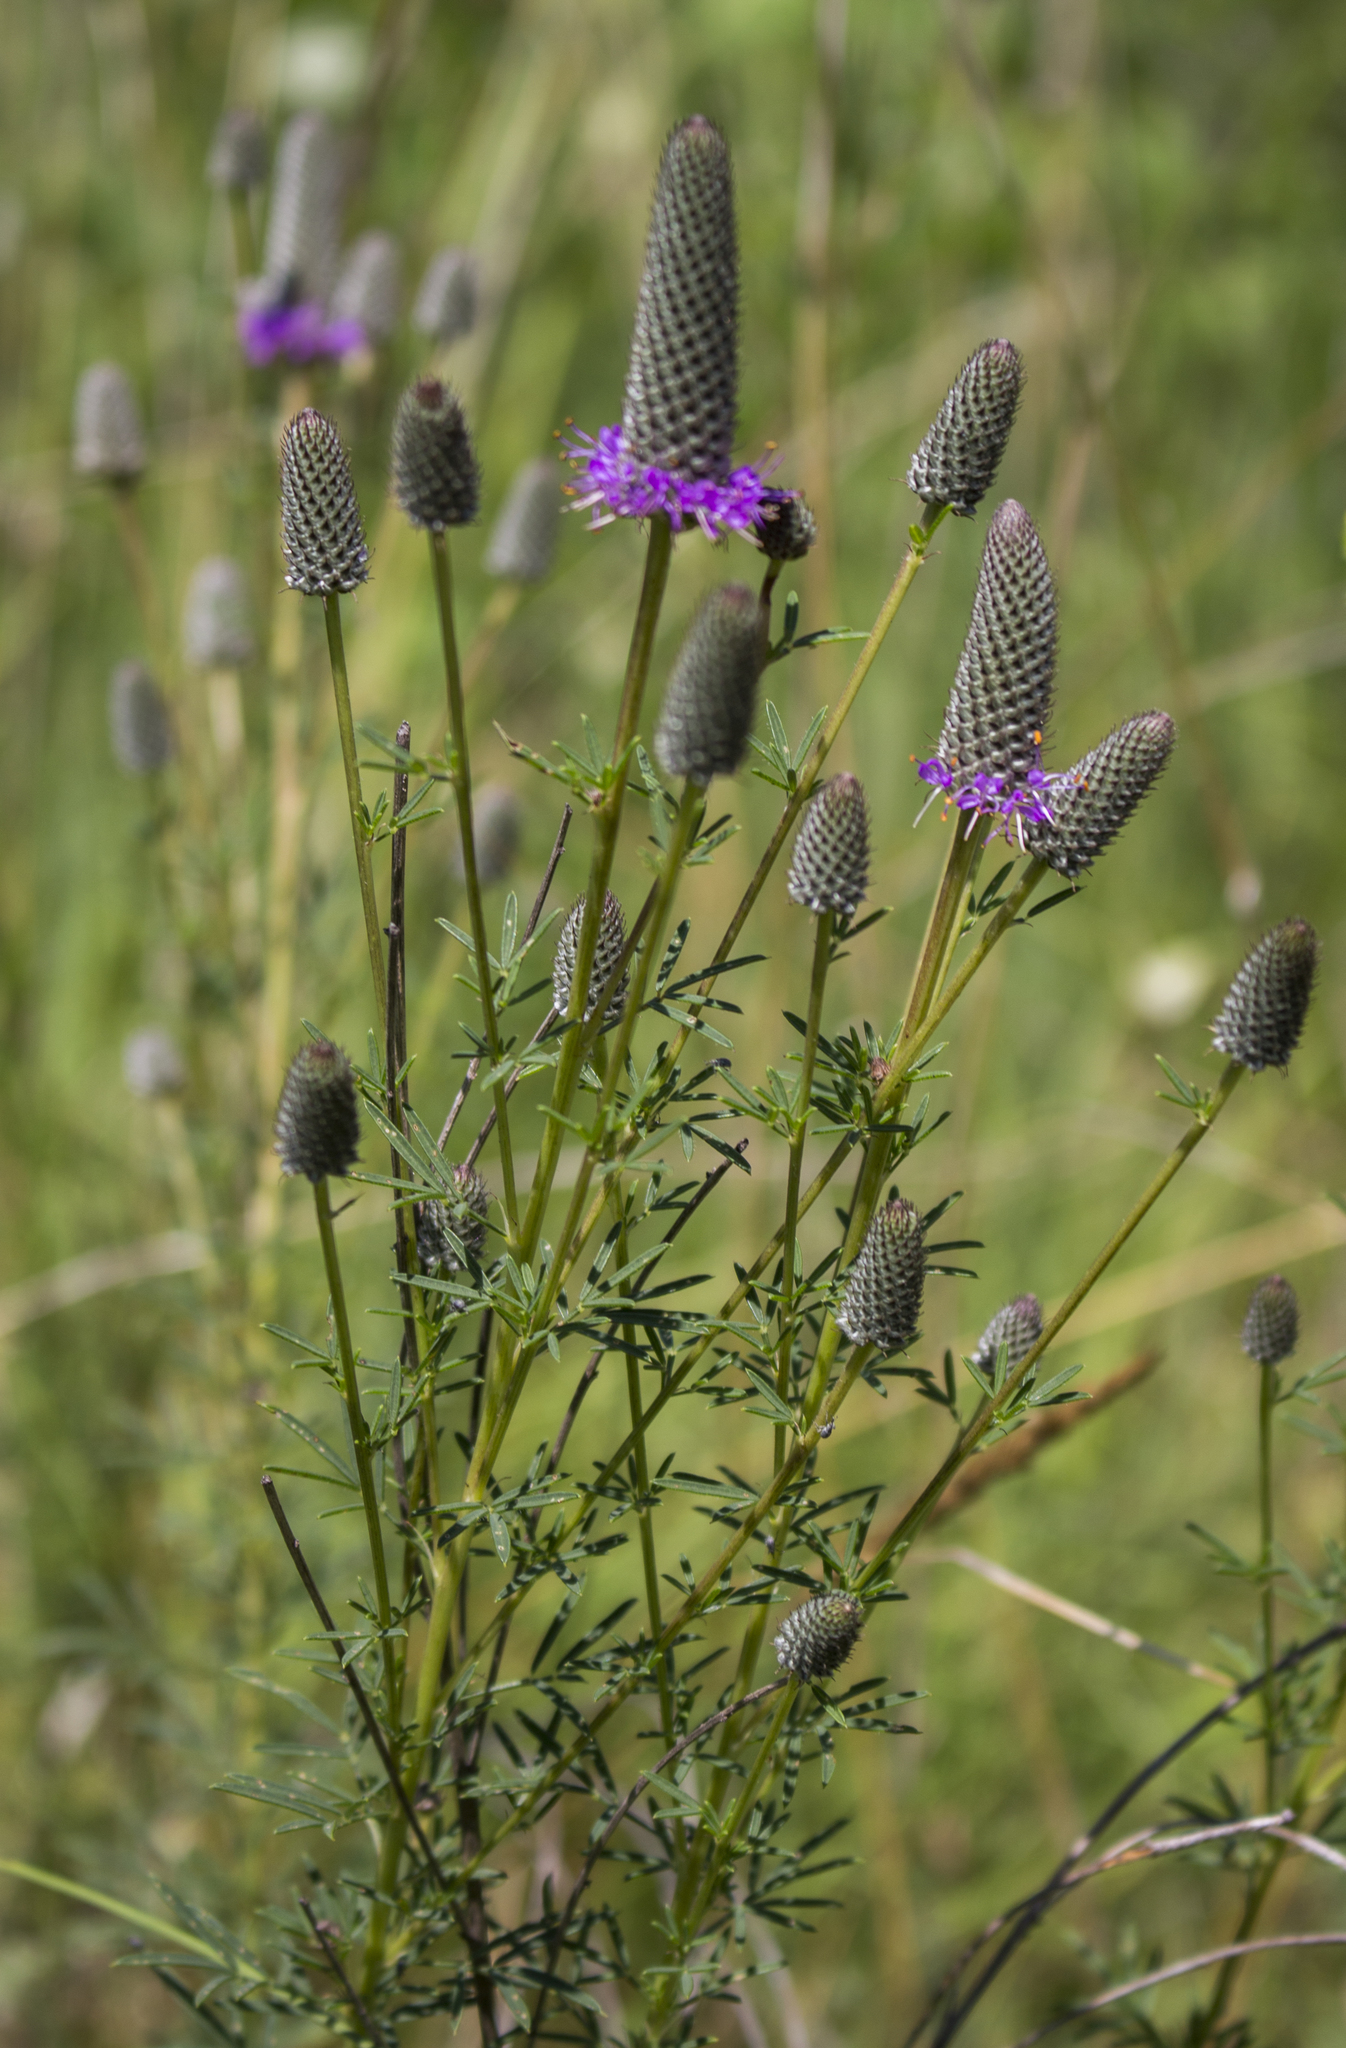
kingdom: Plantae
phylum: Tracheophyta
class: Magnoliopsida
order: Fabales
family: Fabaceae
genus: Dalea
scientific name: Dalea purpurea
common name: Purple prairie-clover
